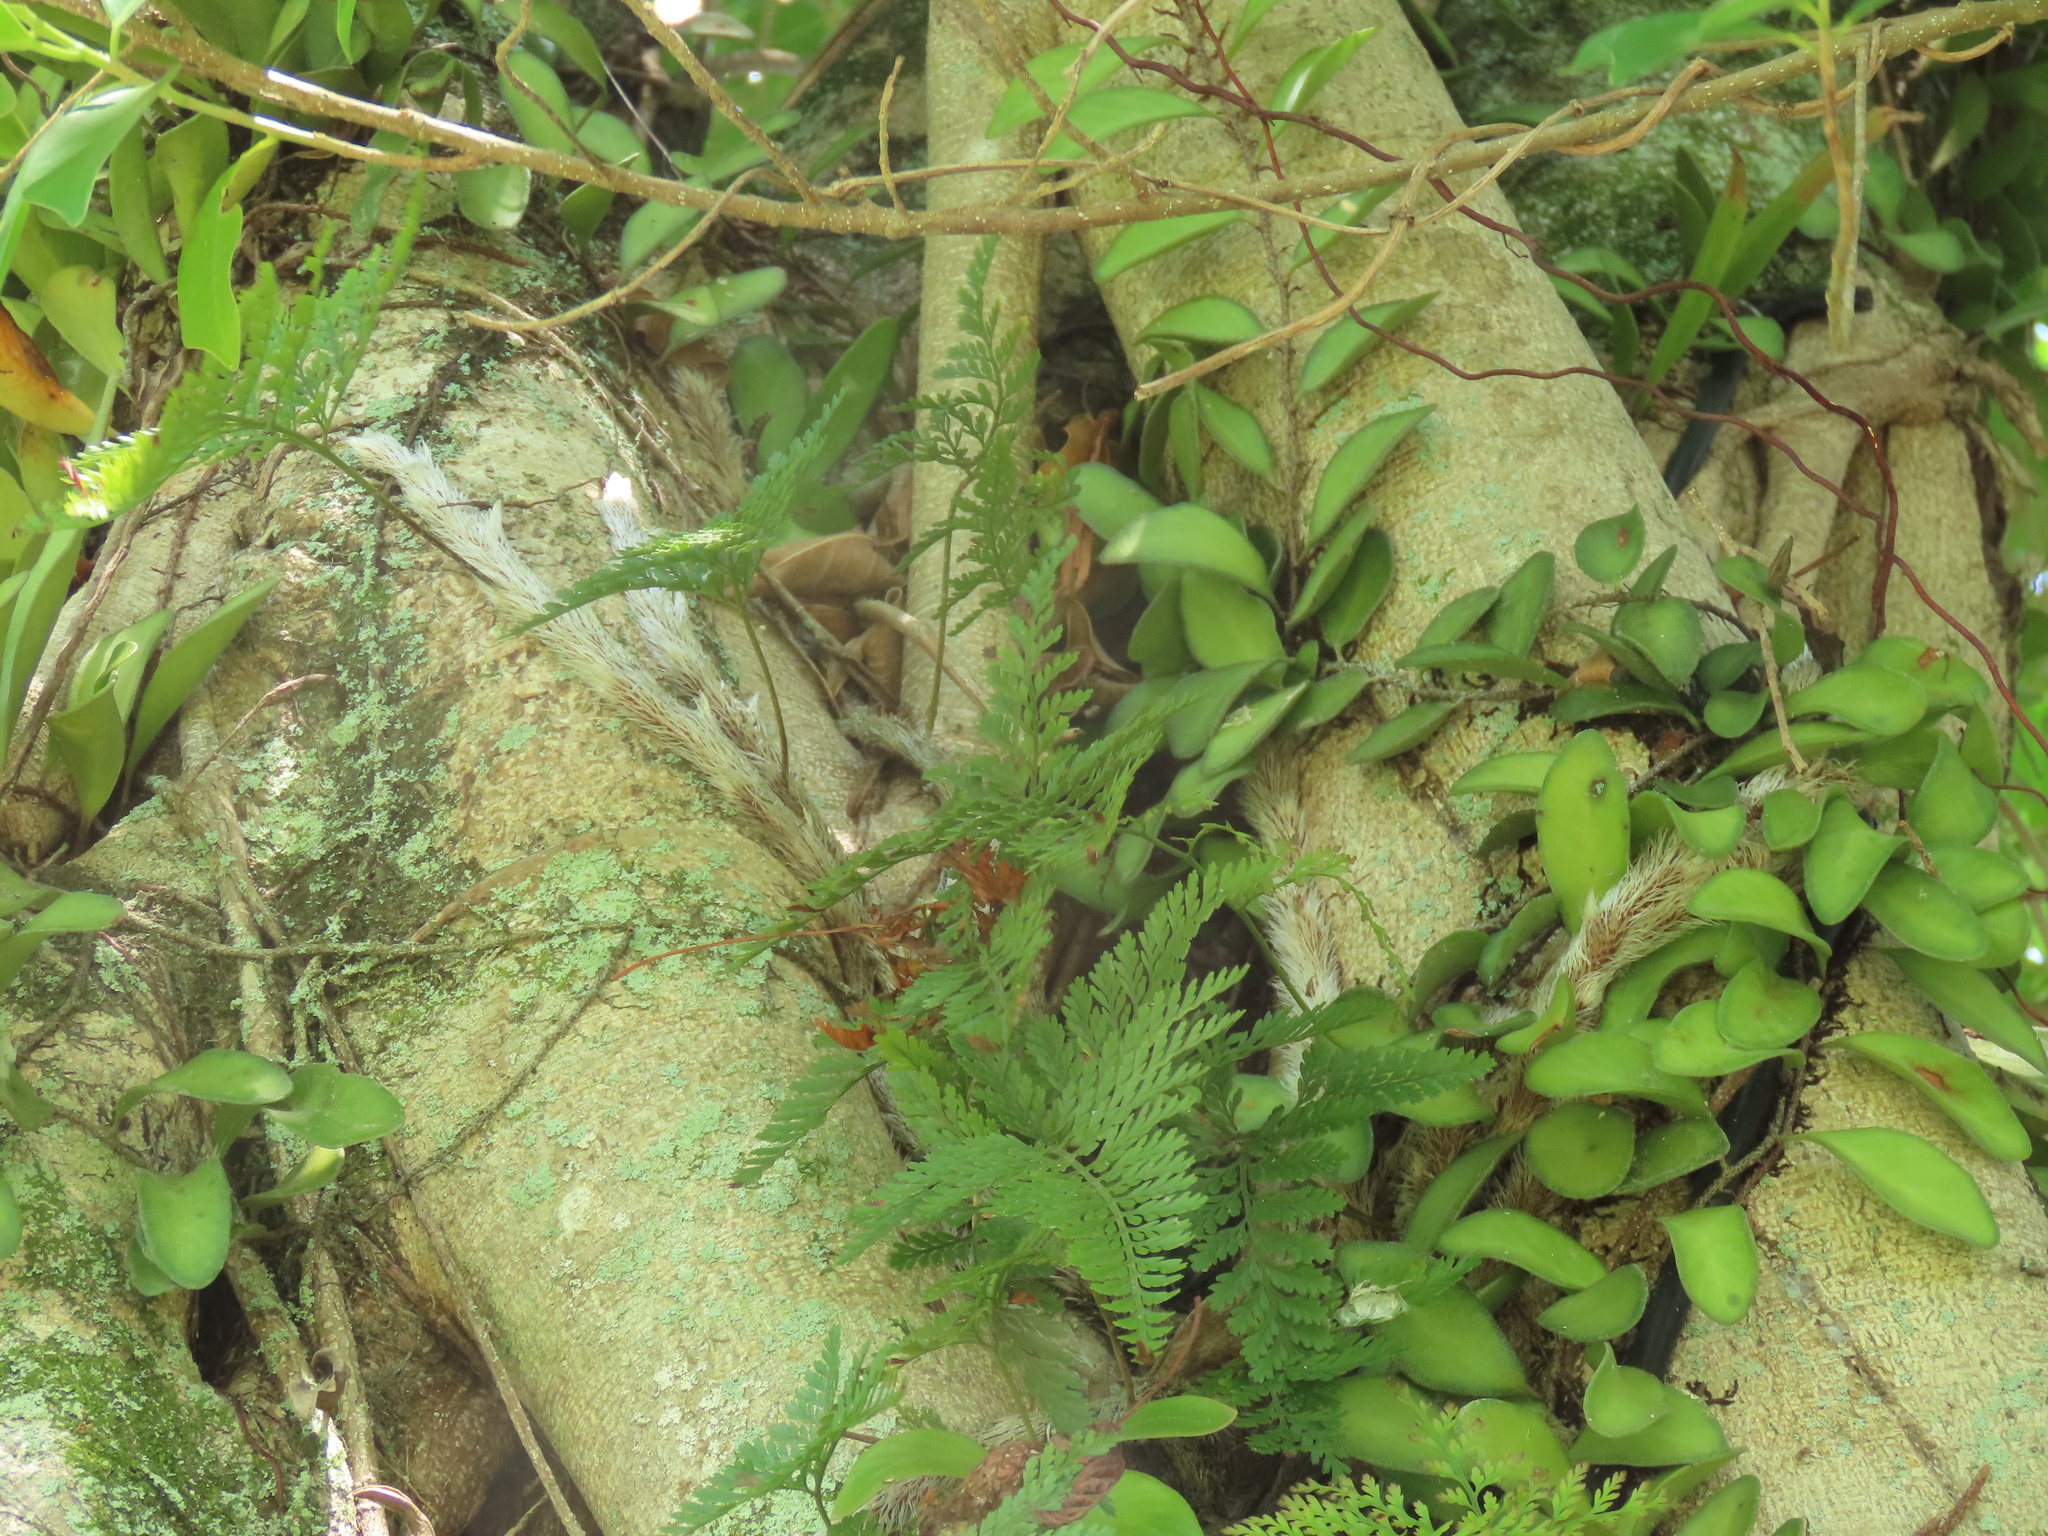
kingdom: Plantae
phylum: Tracheophyta
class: Polypodiopsida
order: Polypodiales
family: Davalliaceae
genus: Davallia
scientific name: Davallia griffithiana
